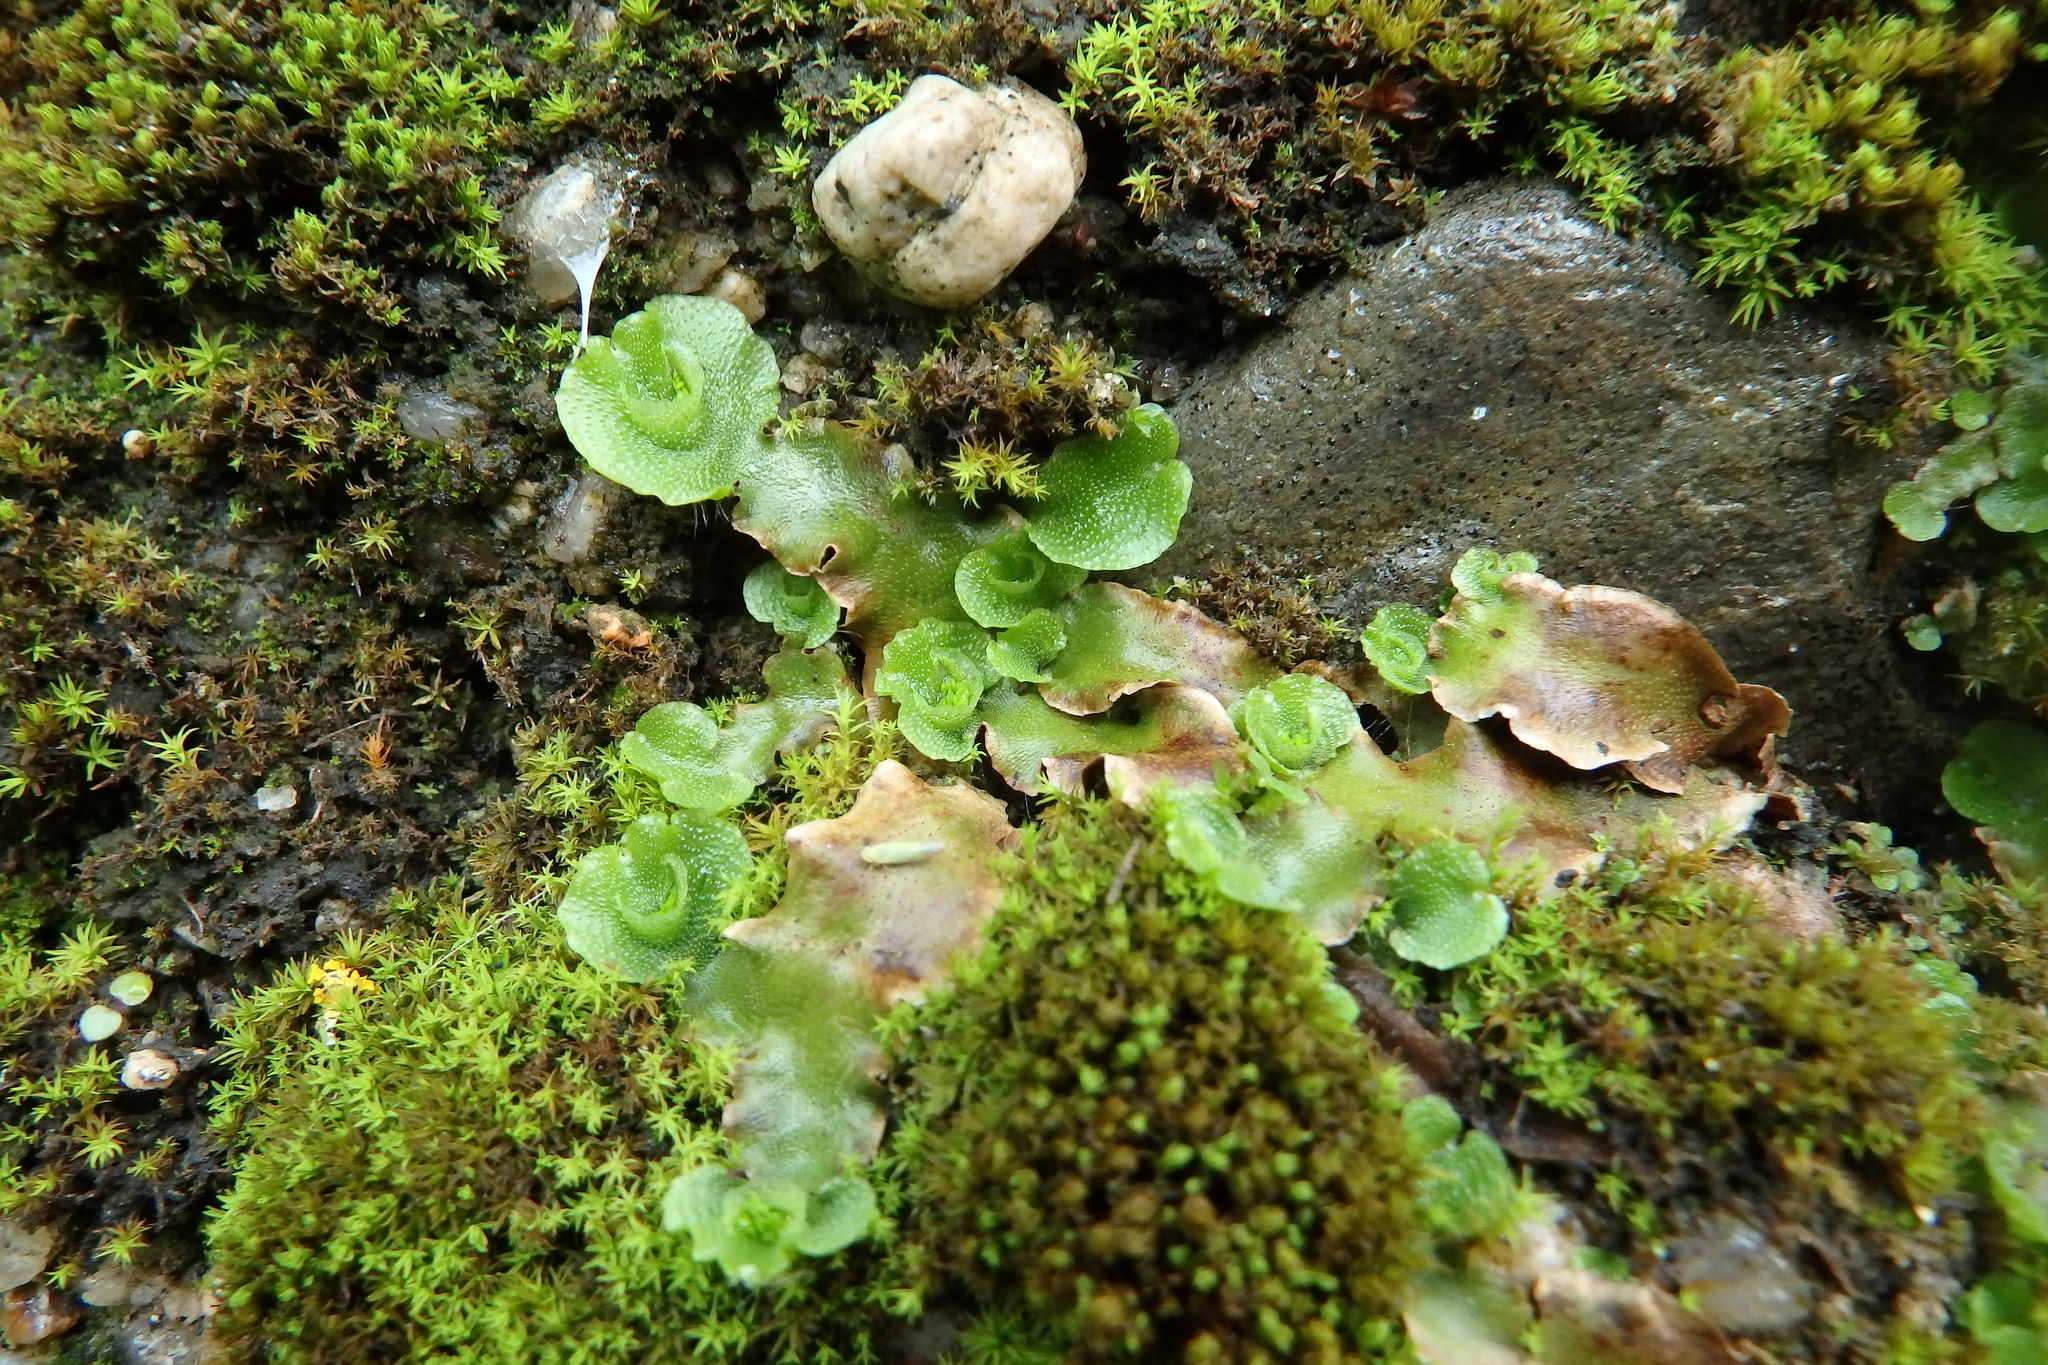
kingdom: Plantae
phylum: Marchantiophyta
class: Marchantiopsida
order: Lunulariales
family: Lunulariaceae
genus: Lunularia
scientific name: Lunularia cruciata
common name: Crescent-cup liverwort
